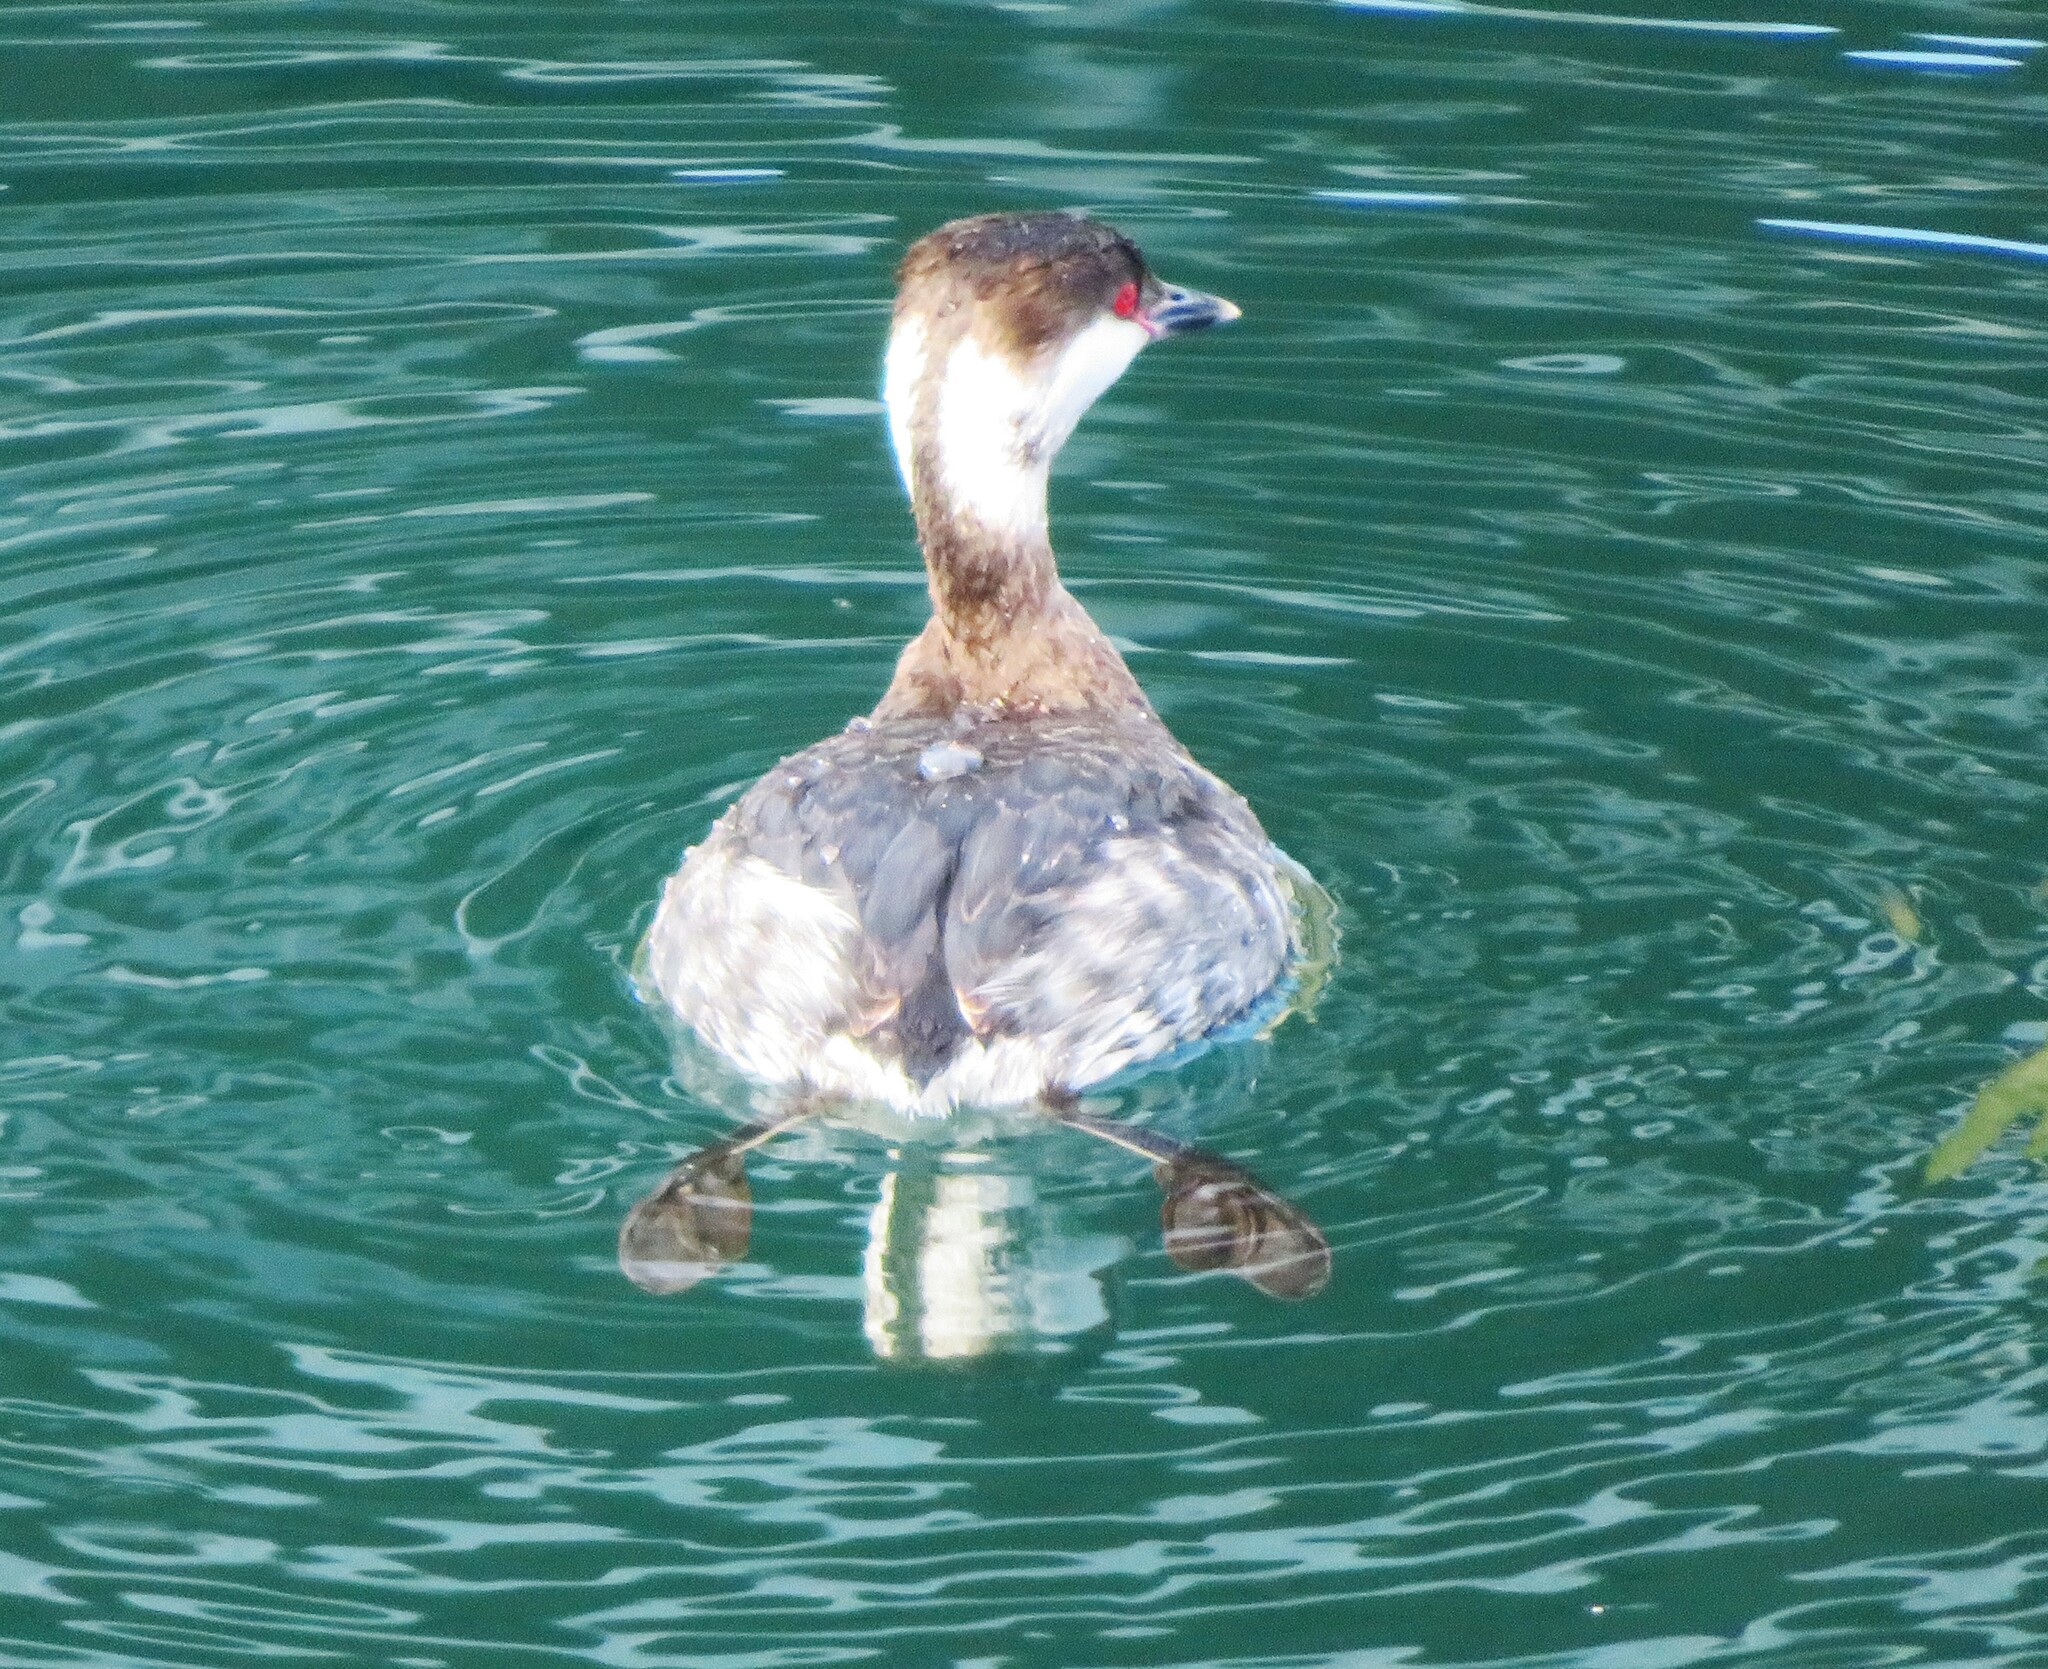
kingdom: Animalia
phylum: Chordata
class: Aves
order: Podicipediformes
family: Podicipedidae
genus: Podiceps
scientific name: Podiceps auritus
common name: Horned grebe
